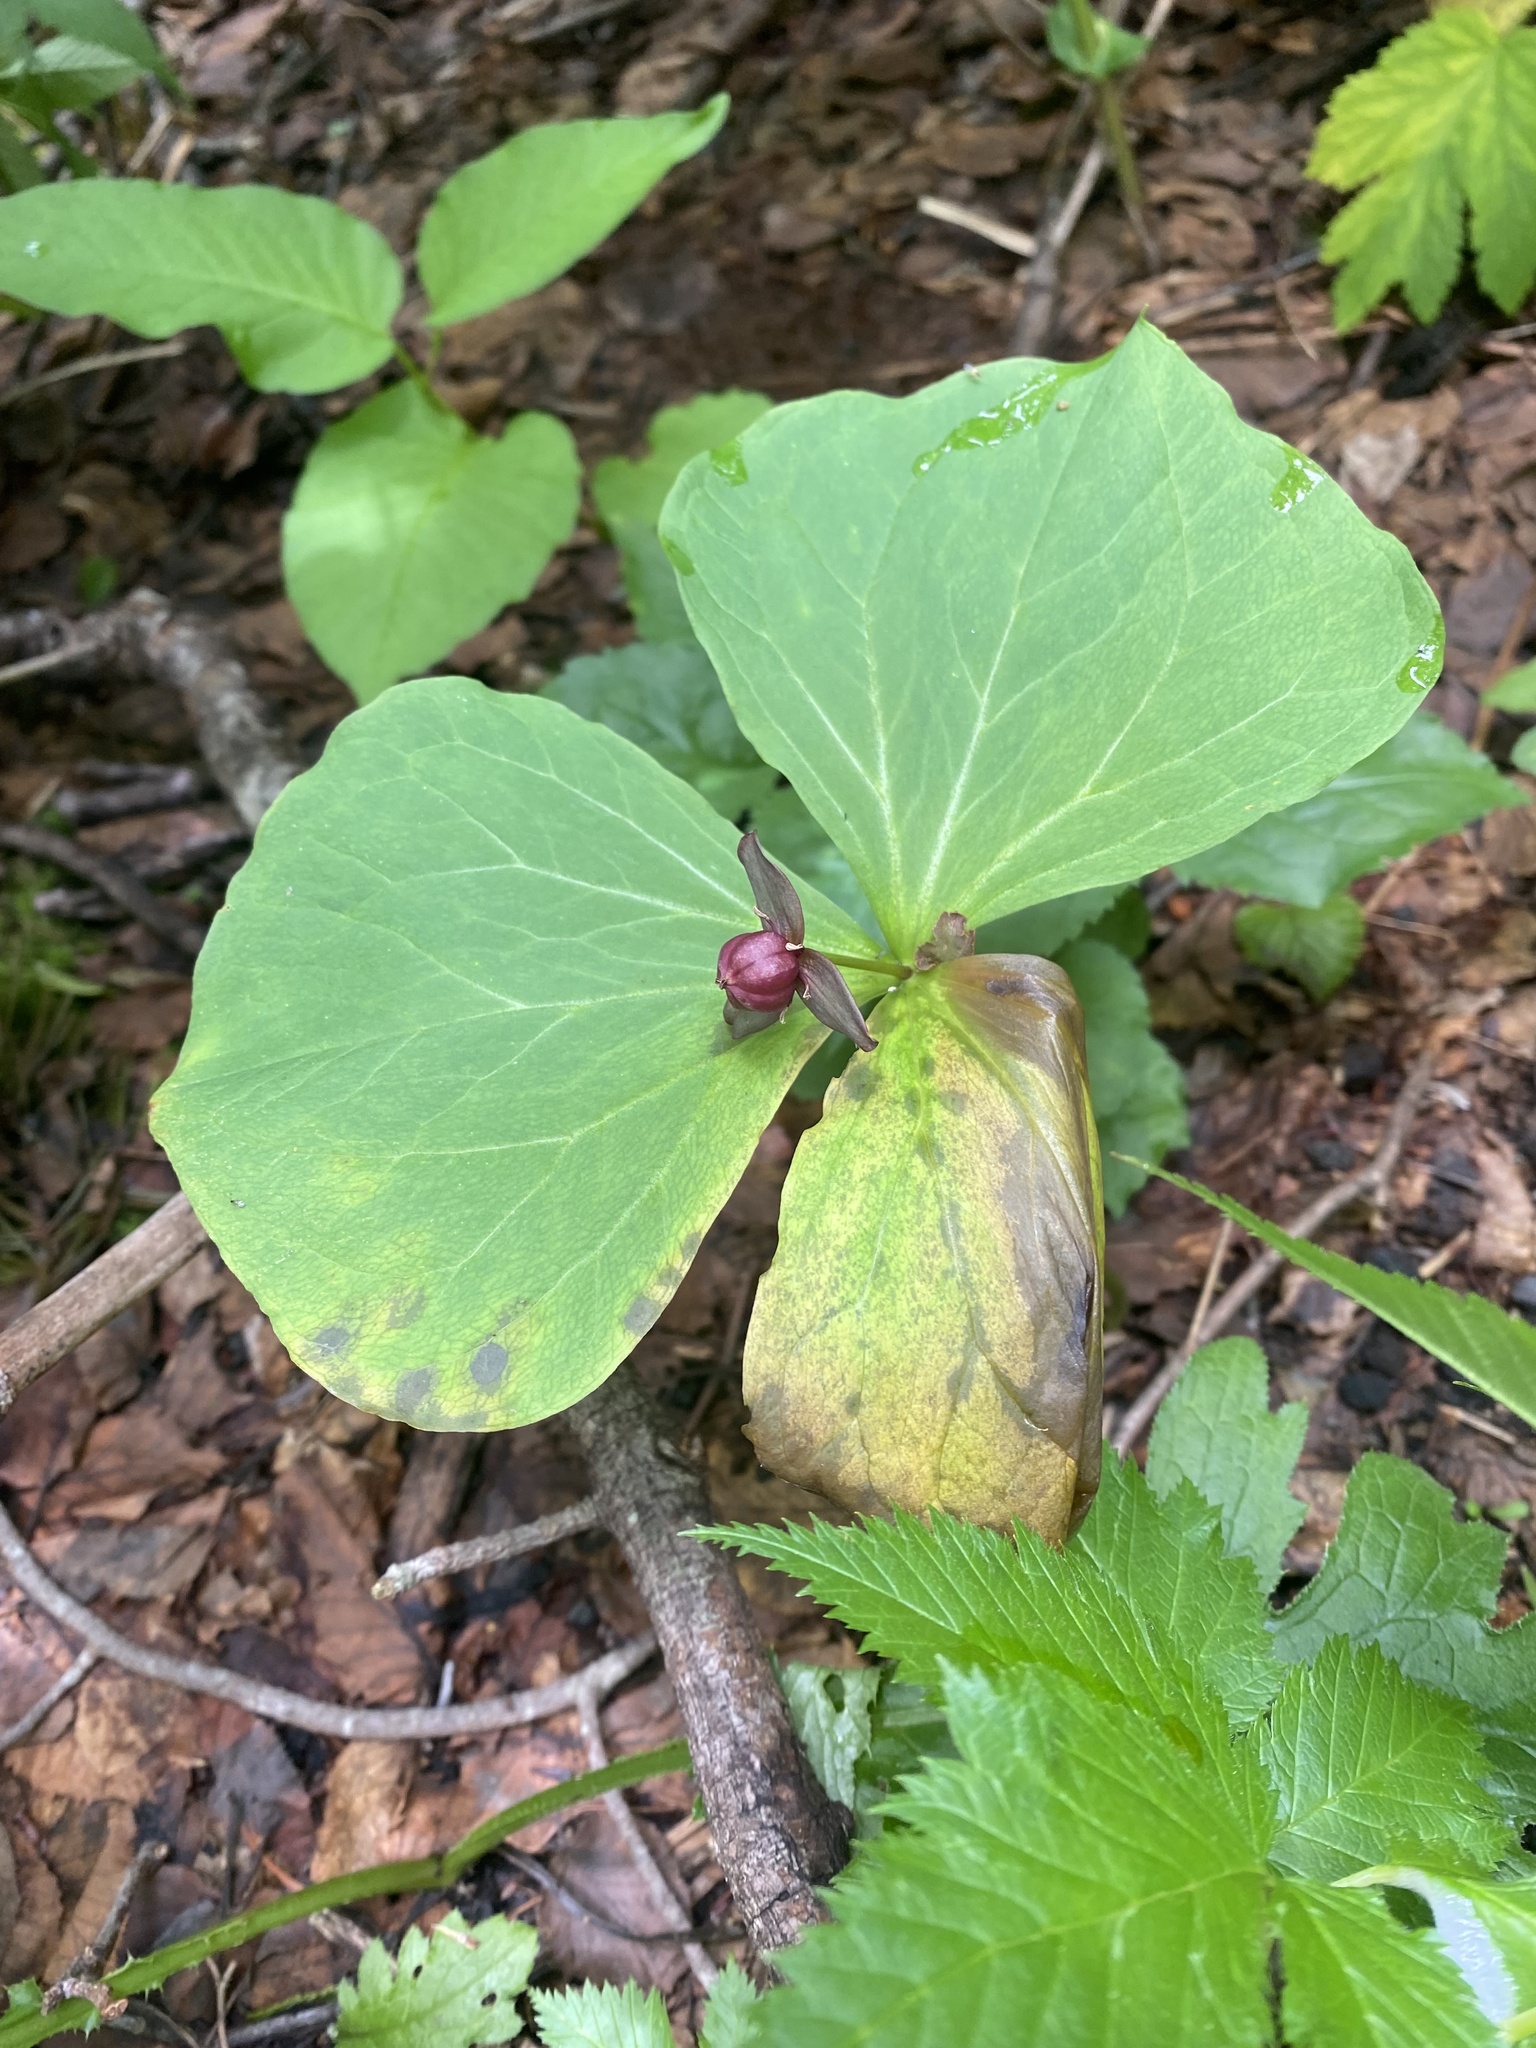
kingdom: Plantae
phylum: Tracheophyta
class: Liliopsida
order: Liliales
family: Melanthiaceae
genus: Trillium
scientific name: Trillium apetalon
